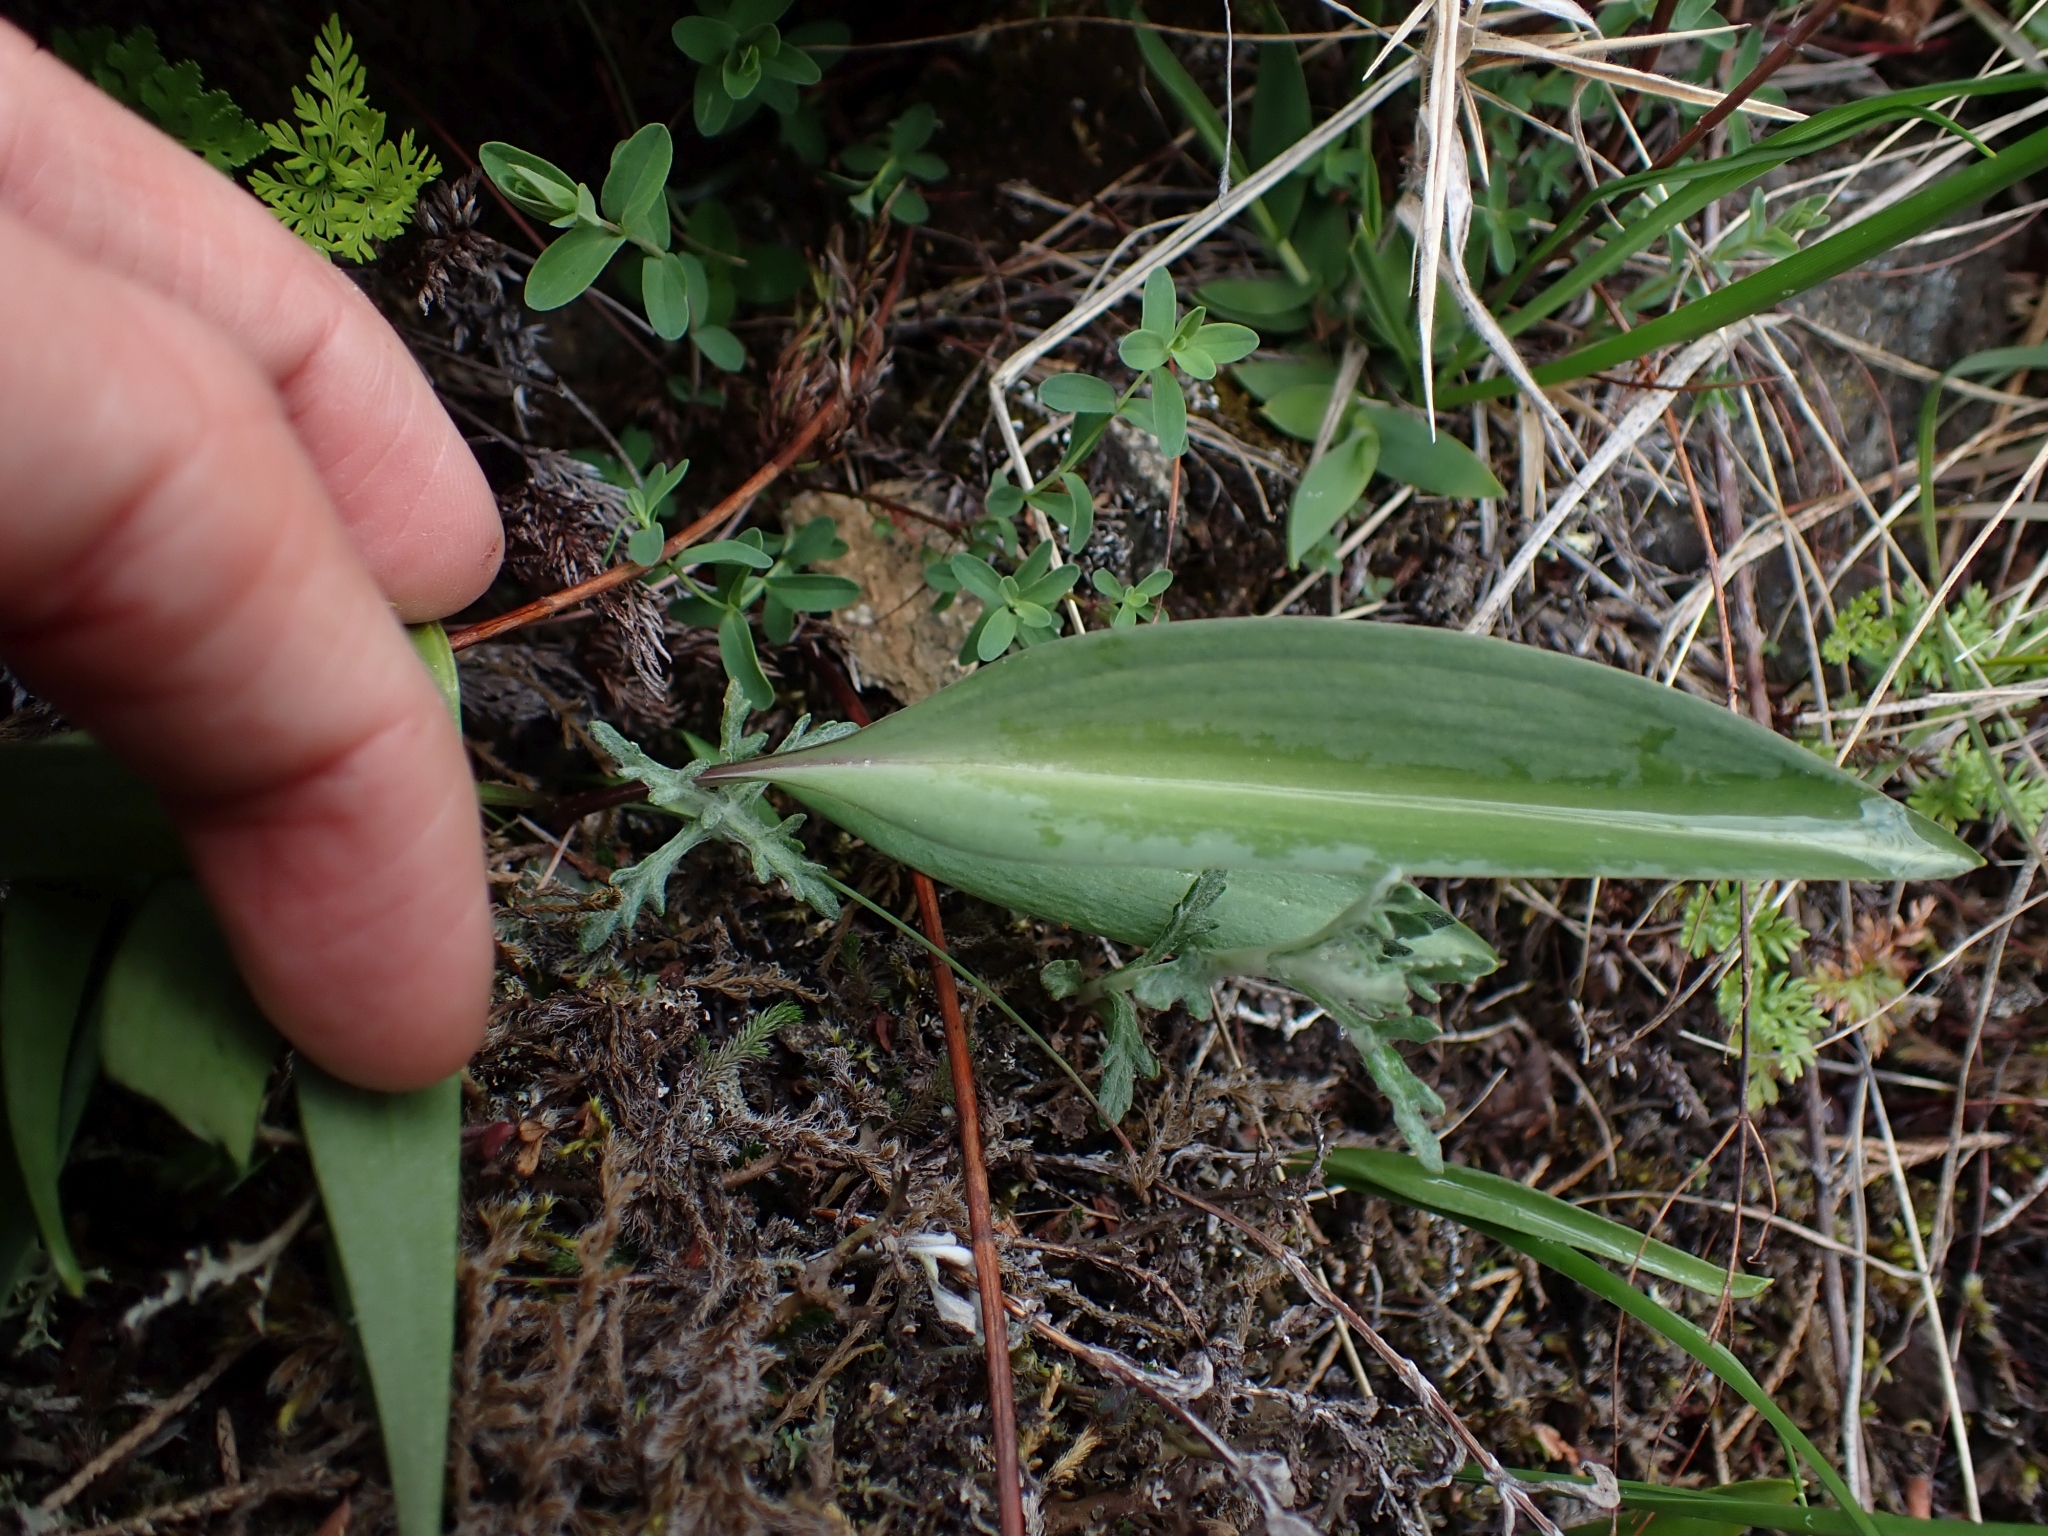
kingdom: Plantae
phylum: Tracheophyta
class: Liliopsida
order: Liliales
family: Liliaceae
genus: Fritillaria
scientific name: Fritillaria affinis
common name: Ojai fritillary
